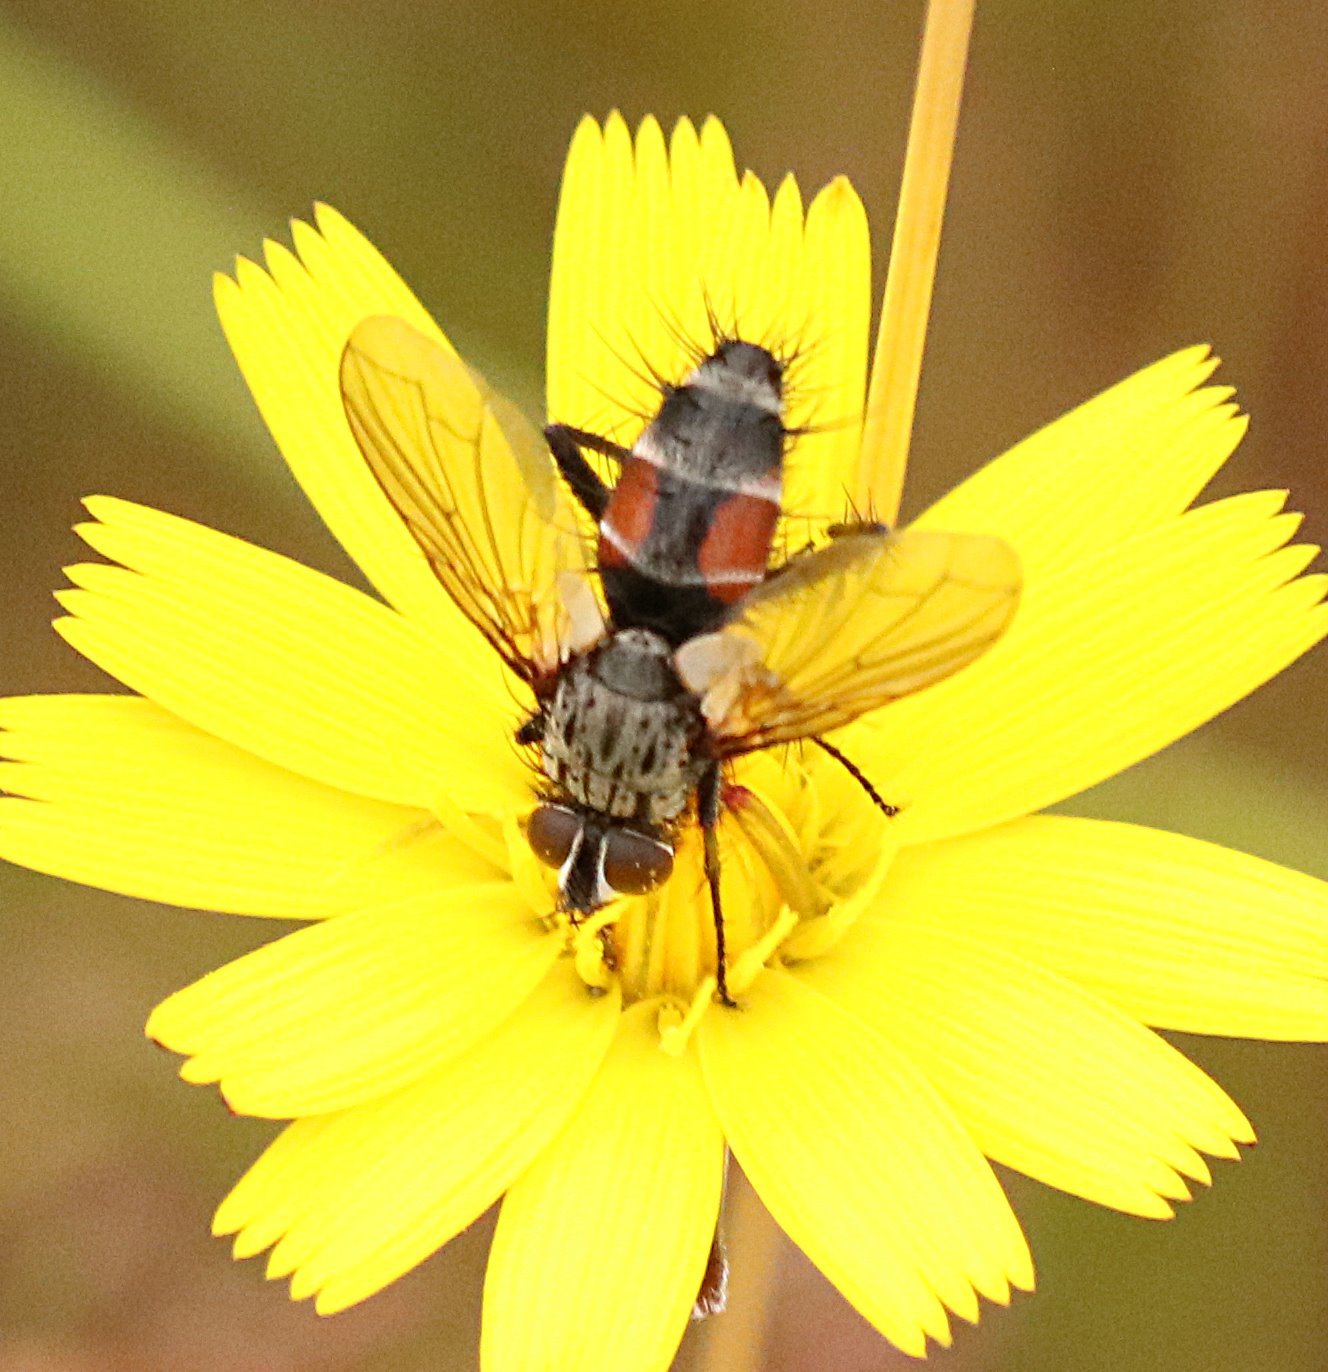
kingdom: Animalia
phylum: Arthropoda
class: Insecta
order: Diptera
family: Tachinidae
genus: Eriothrix
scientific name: Eriothrix rufomaculatus
